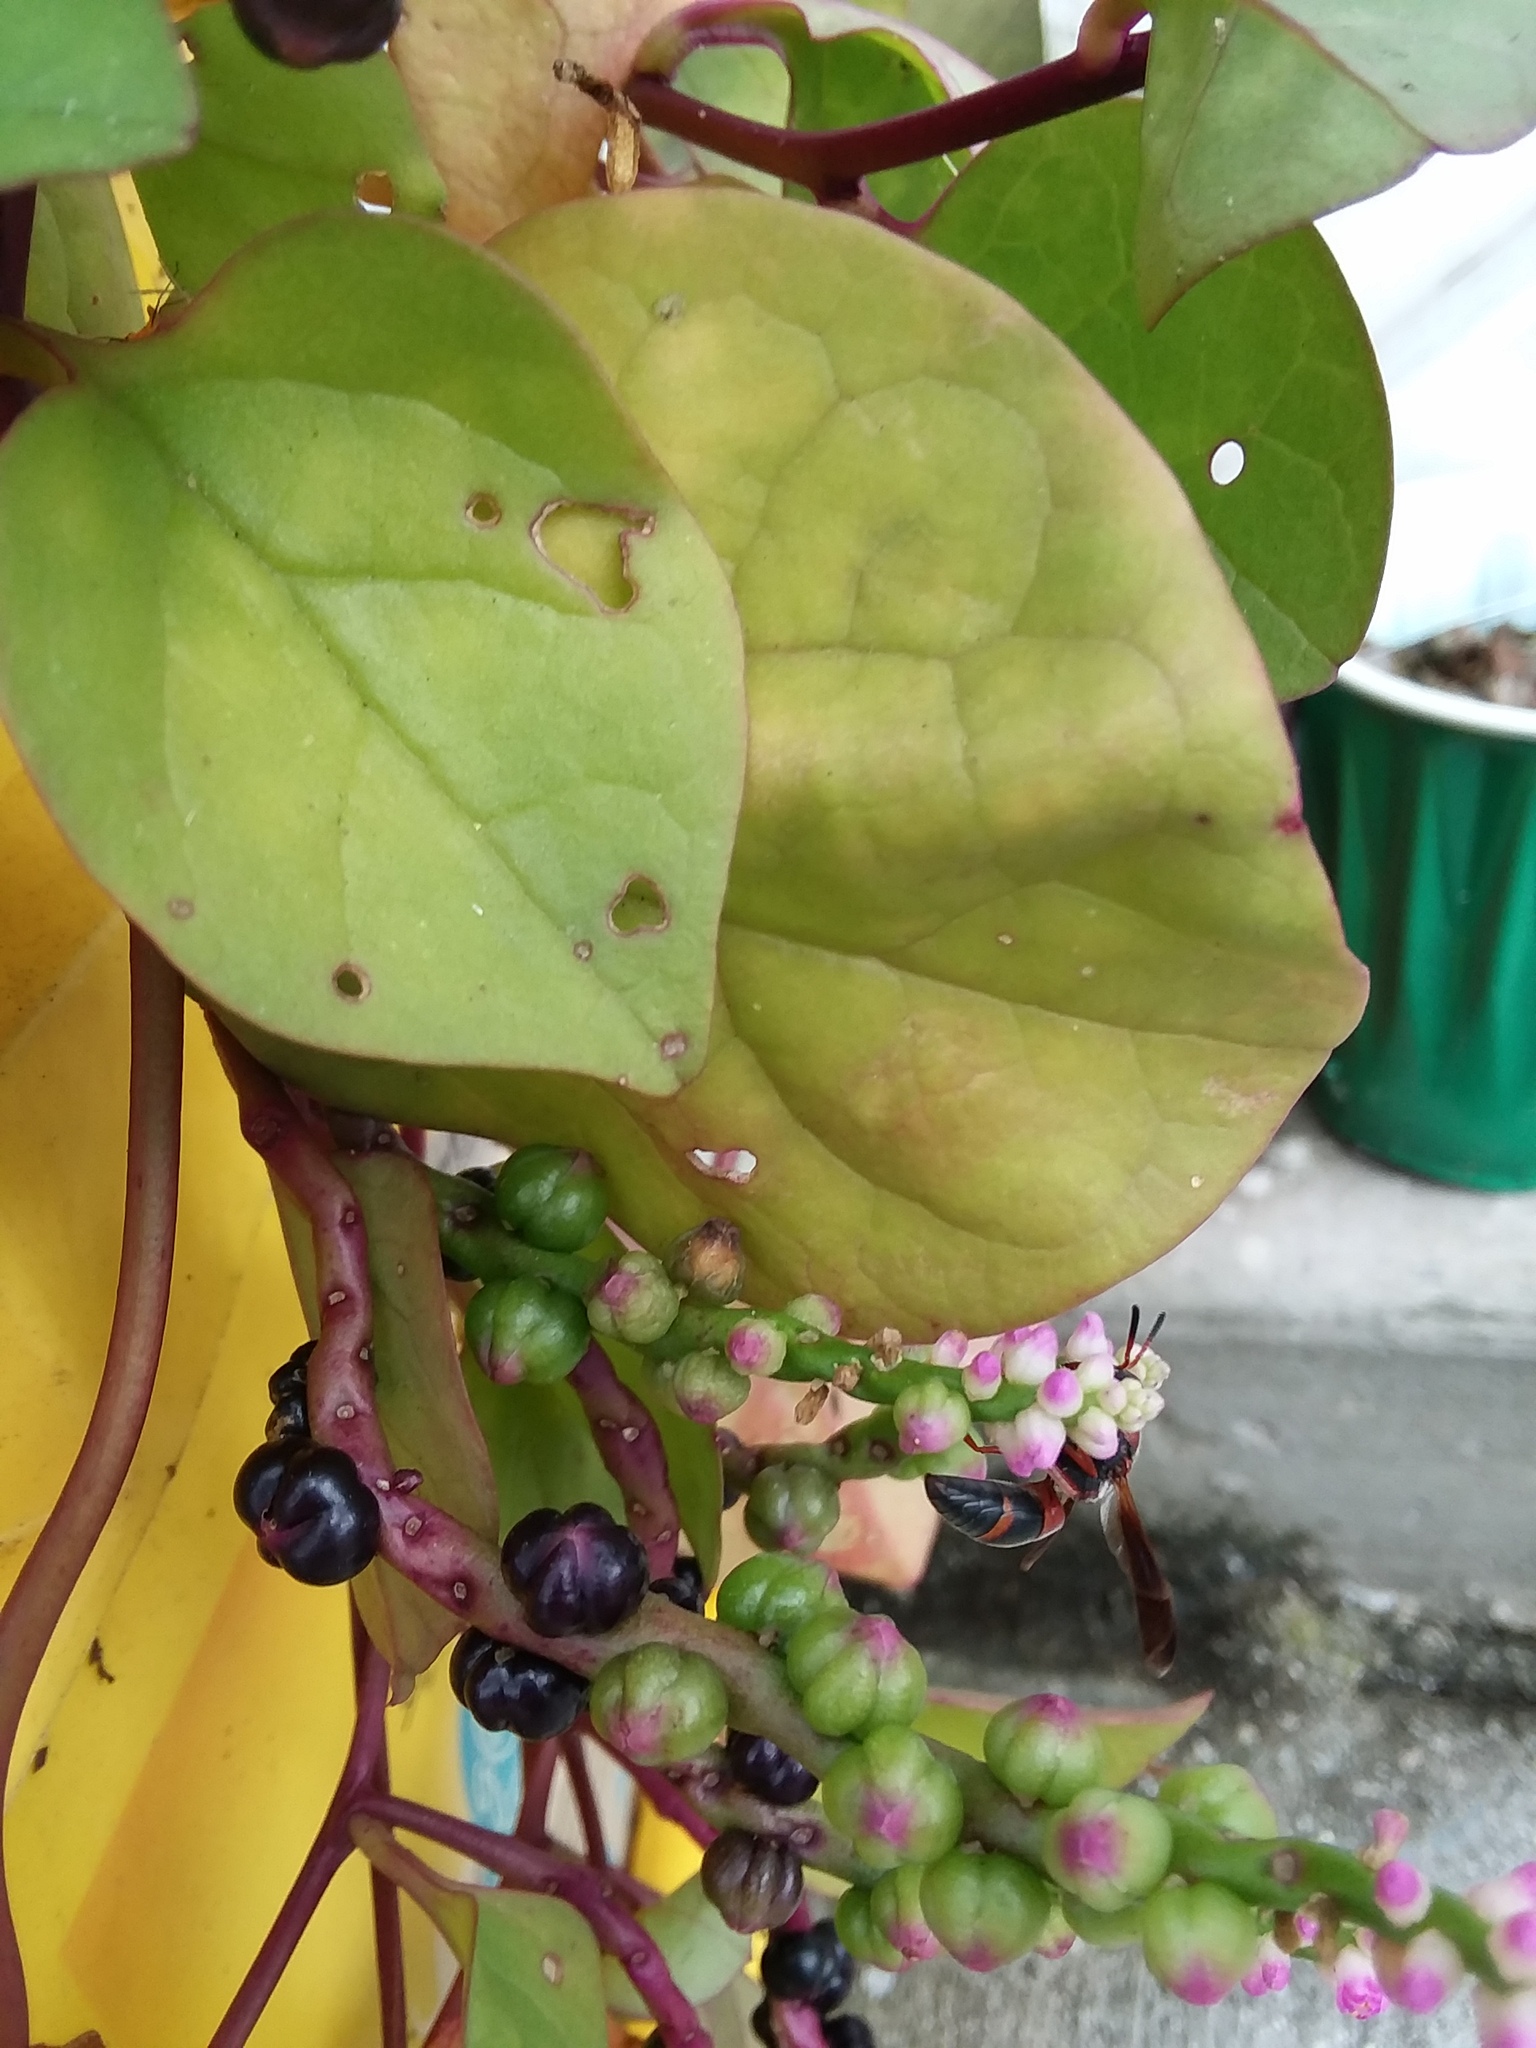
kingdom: Animalia
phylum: Arthropoda
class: Insecta
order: Hymenoptera
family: Eumenidae
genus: Pachodynerus
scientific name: Pachodynerus erynnis
